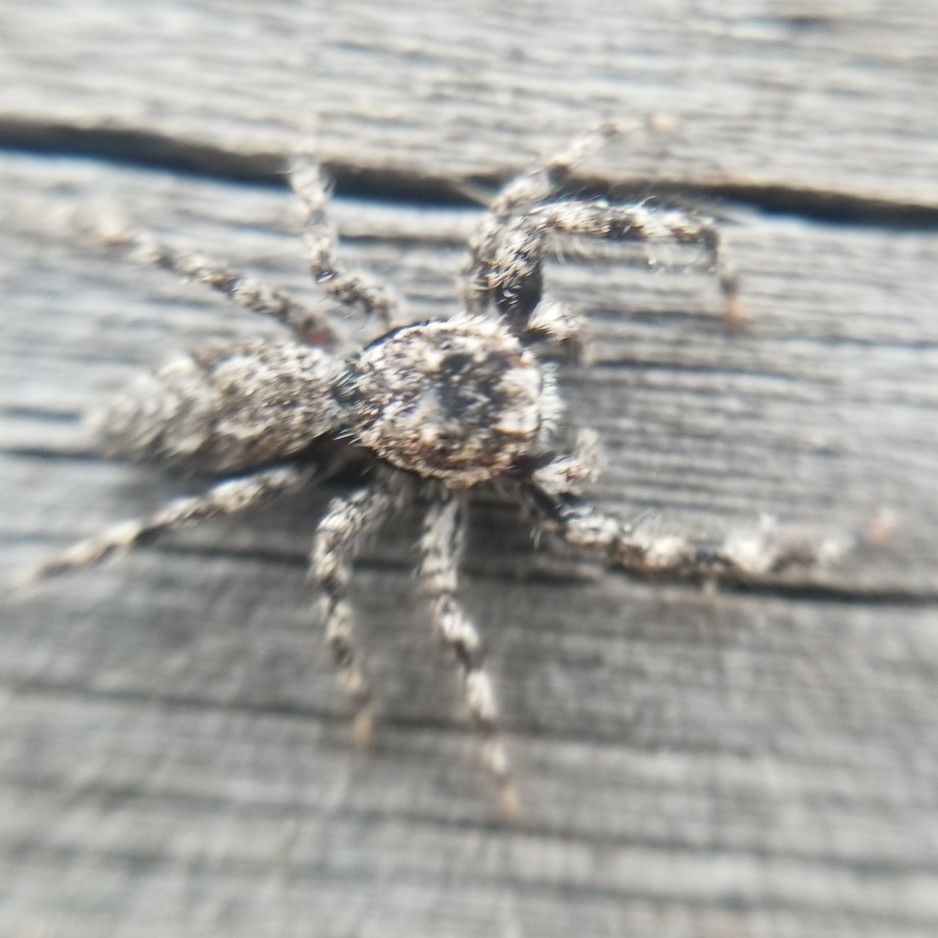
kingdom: Animalia
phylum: Arthropoda
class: Arachnida
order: Araneae
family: Salticidae
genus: Platycryptus
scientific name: Platycryptus undatus
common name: Tan jumping spider
